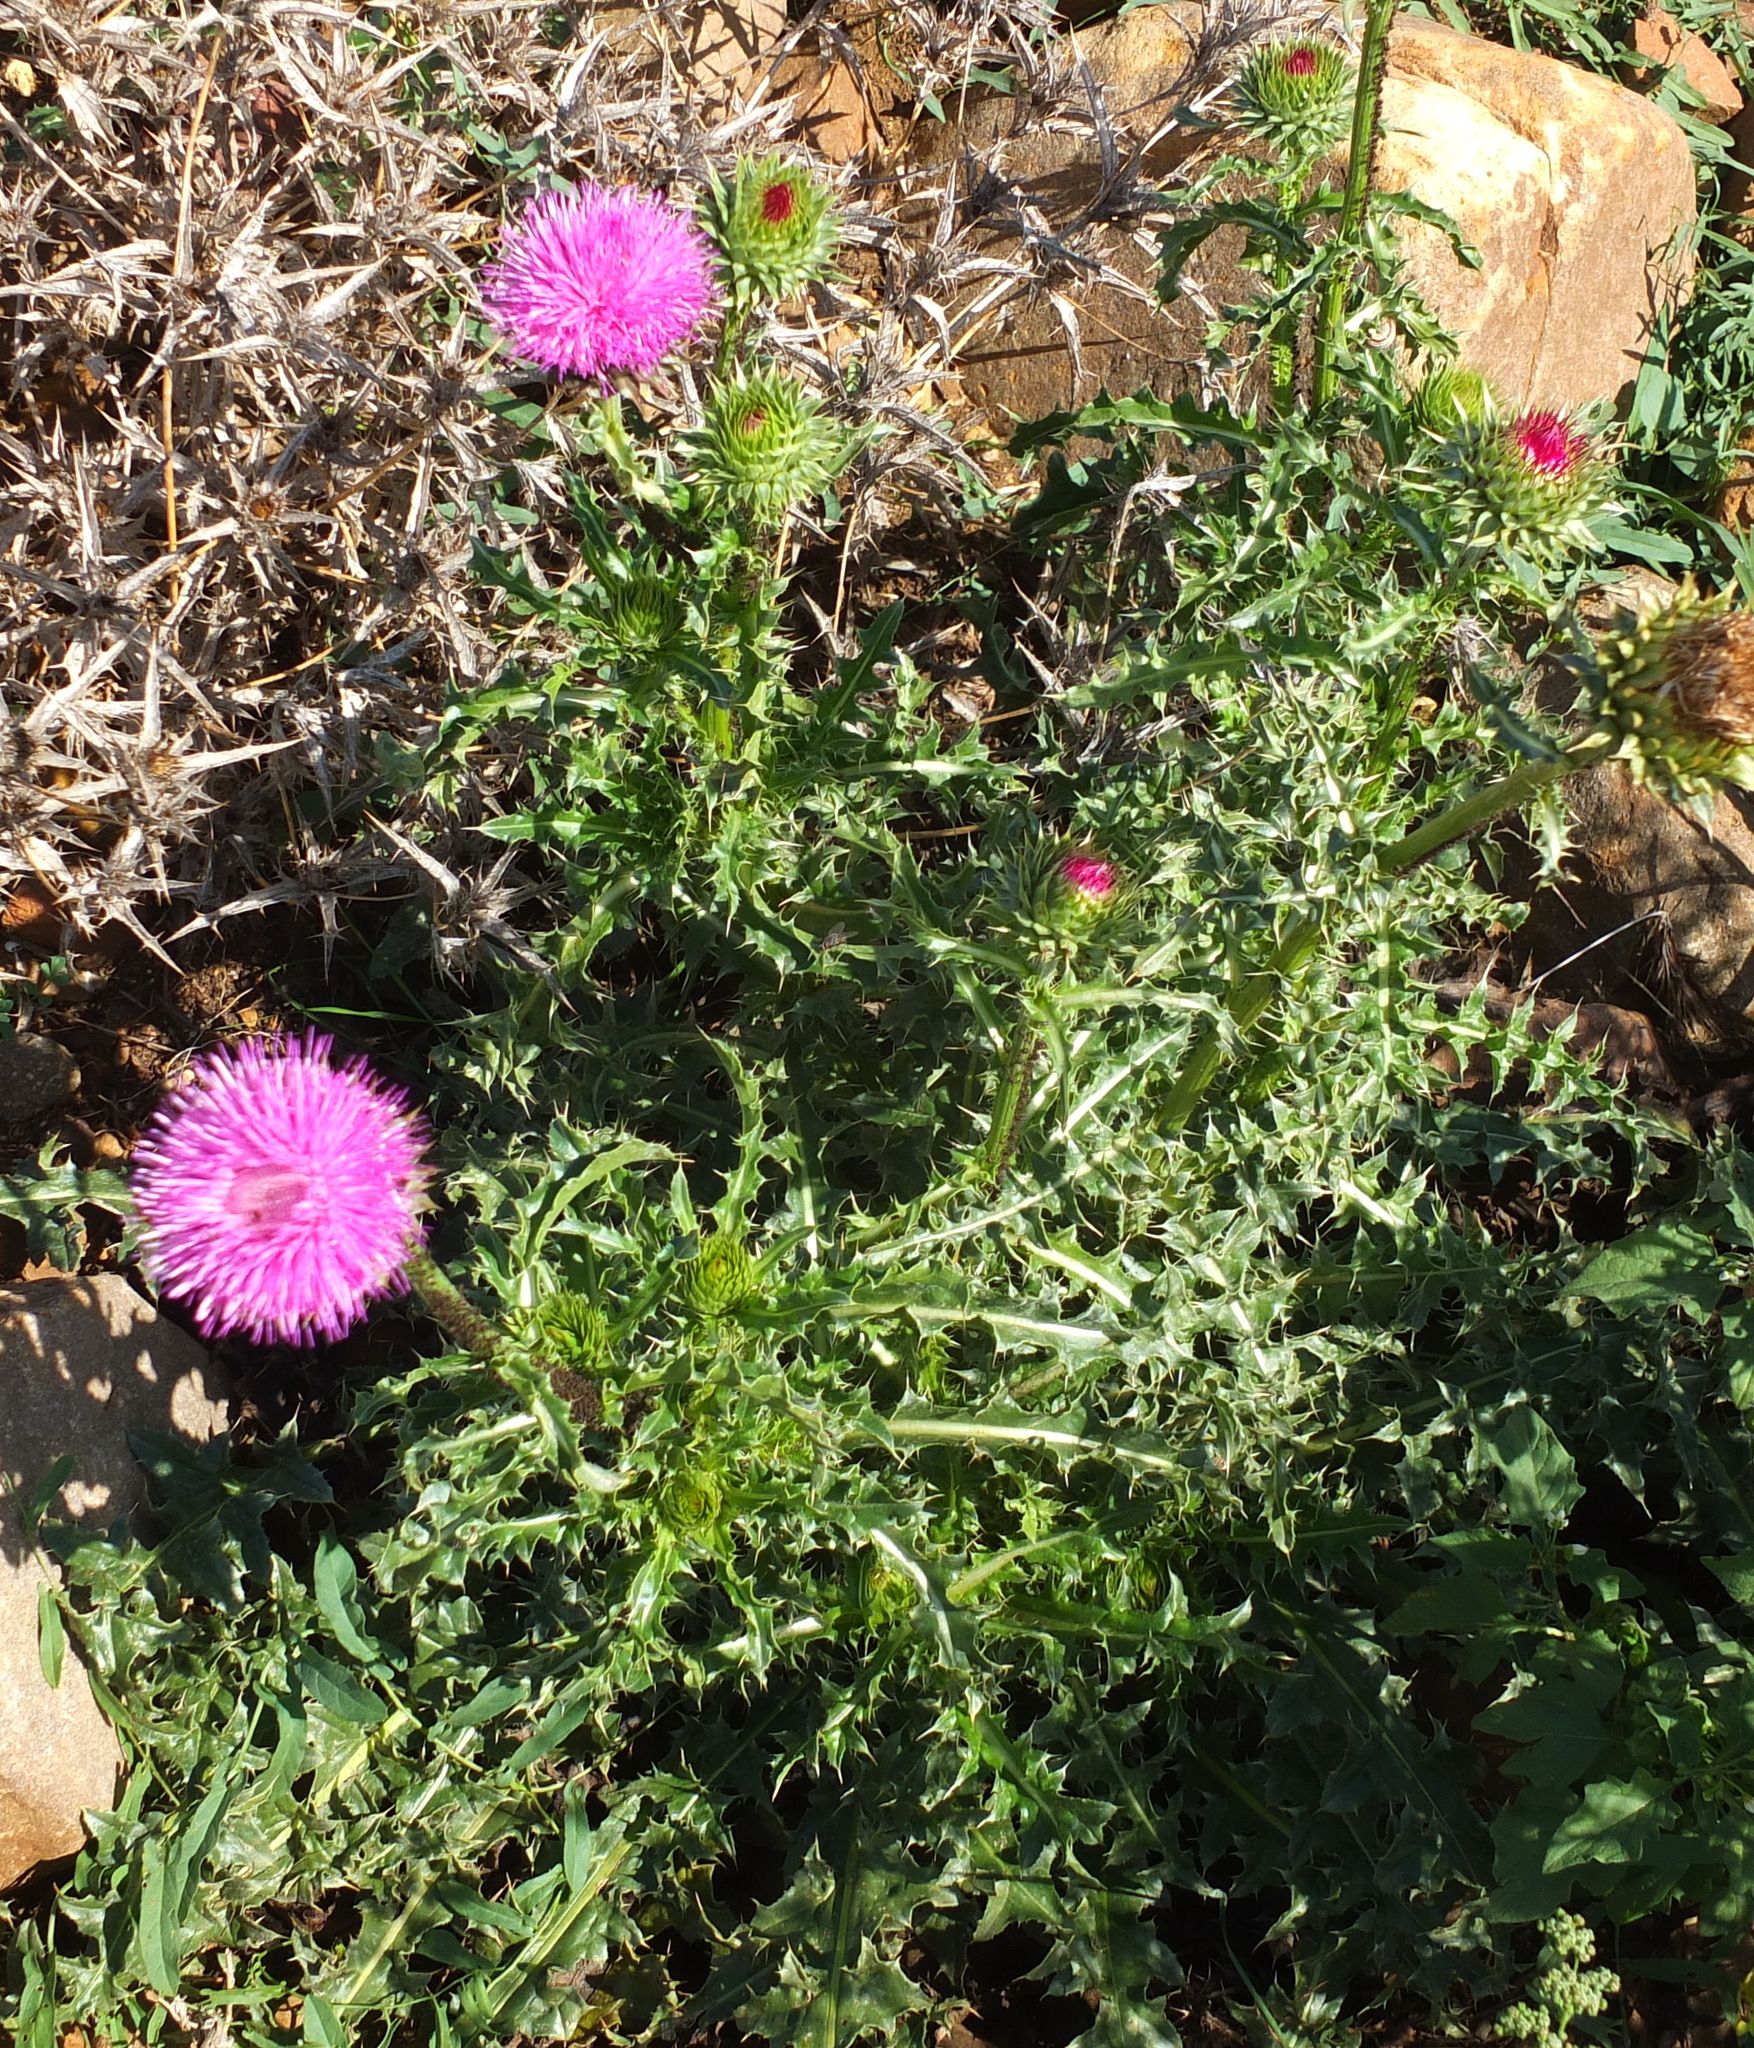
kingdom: Plantae
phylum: Tracheophyta
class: Magnoliopsida
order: Asterales
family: Asteraceae
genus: Carduus
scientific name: Carduus macrocephalus
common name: Giant thistle
